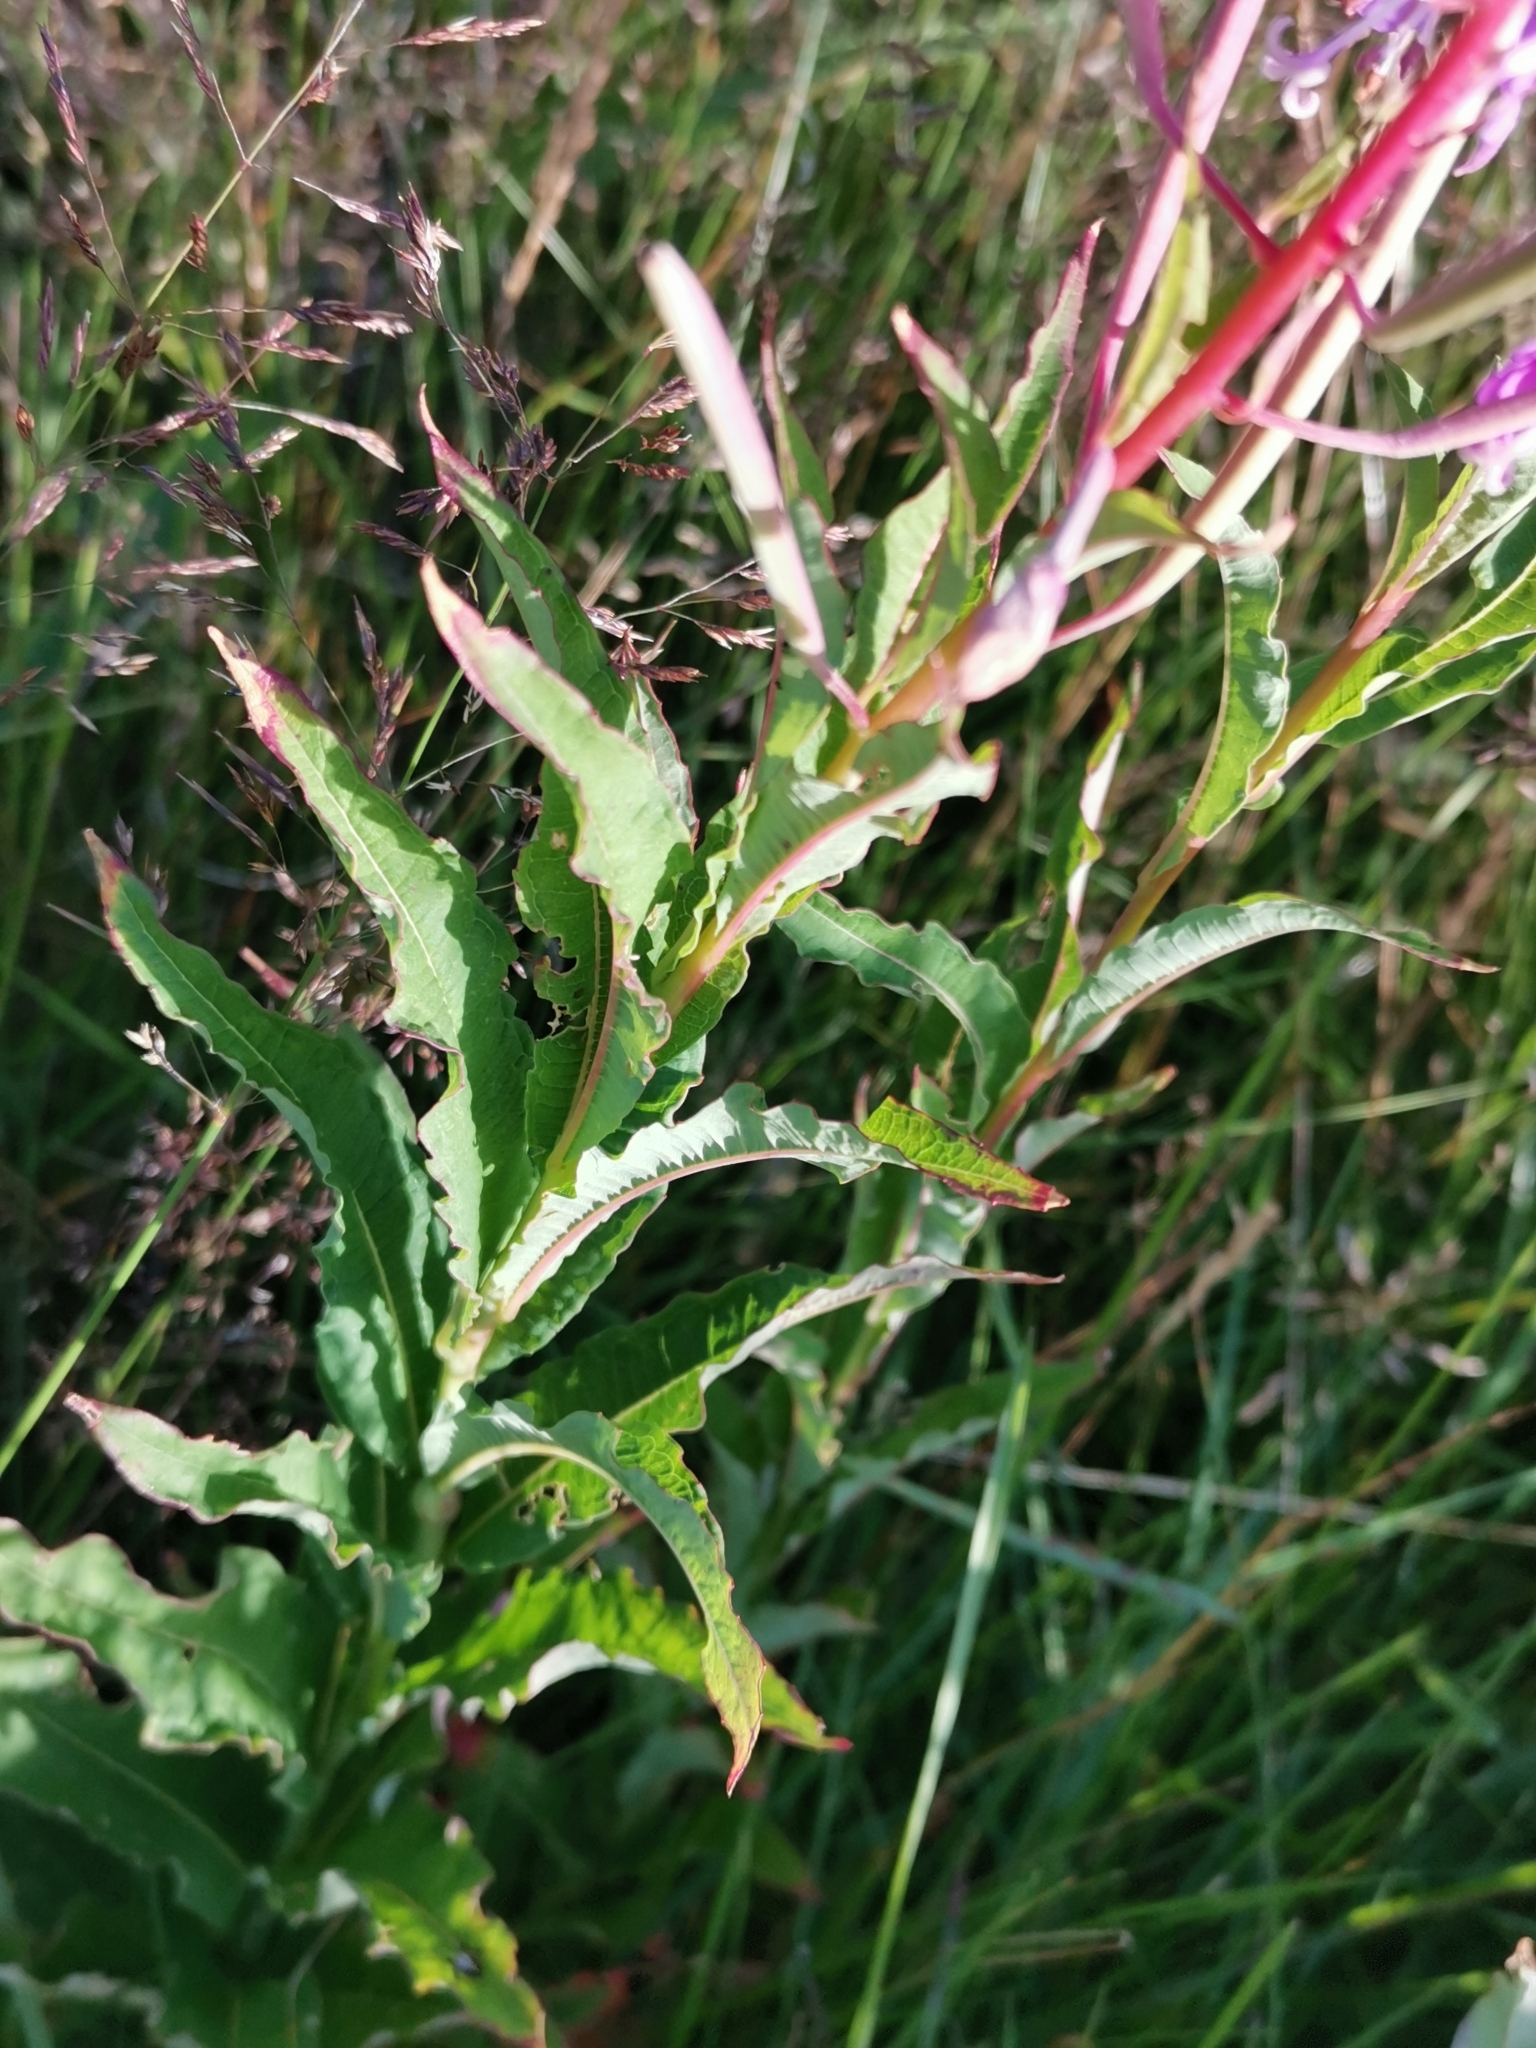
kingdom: Plantae
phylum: Tracheophyta
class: Magnoliopsida
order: Myrtales
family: Onagraceae
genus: Chamaenerion
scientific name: Chamaenerion angustifolium
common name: Fireweed
